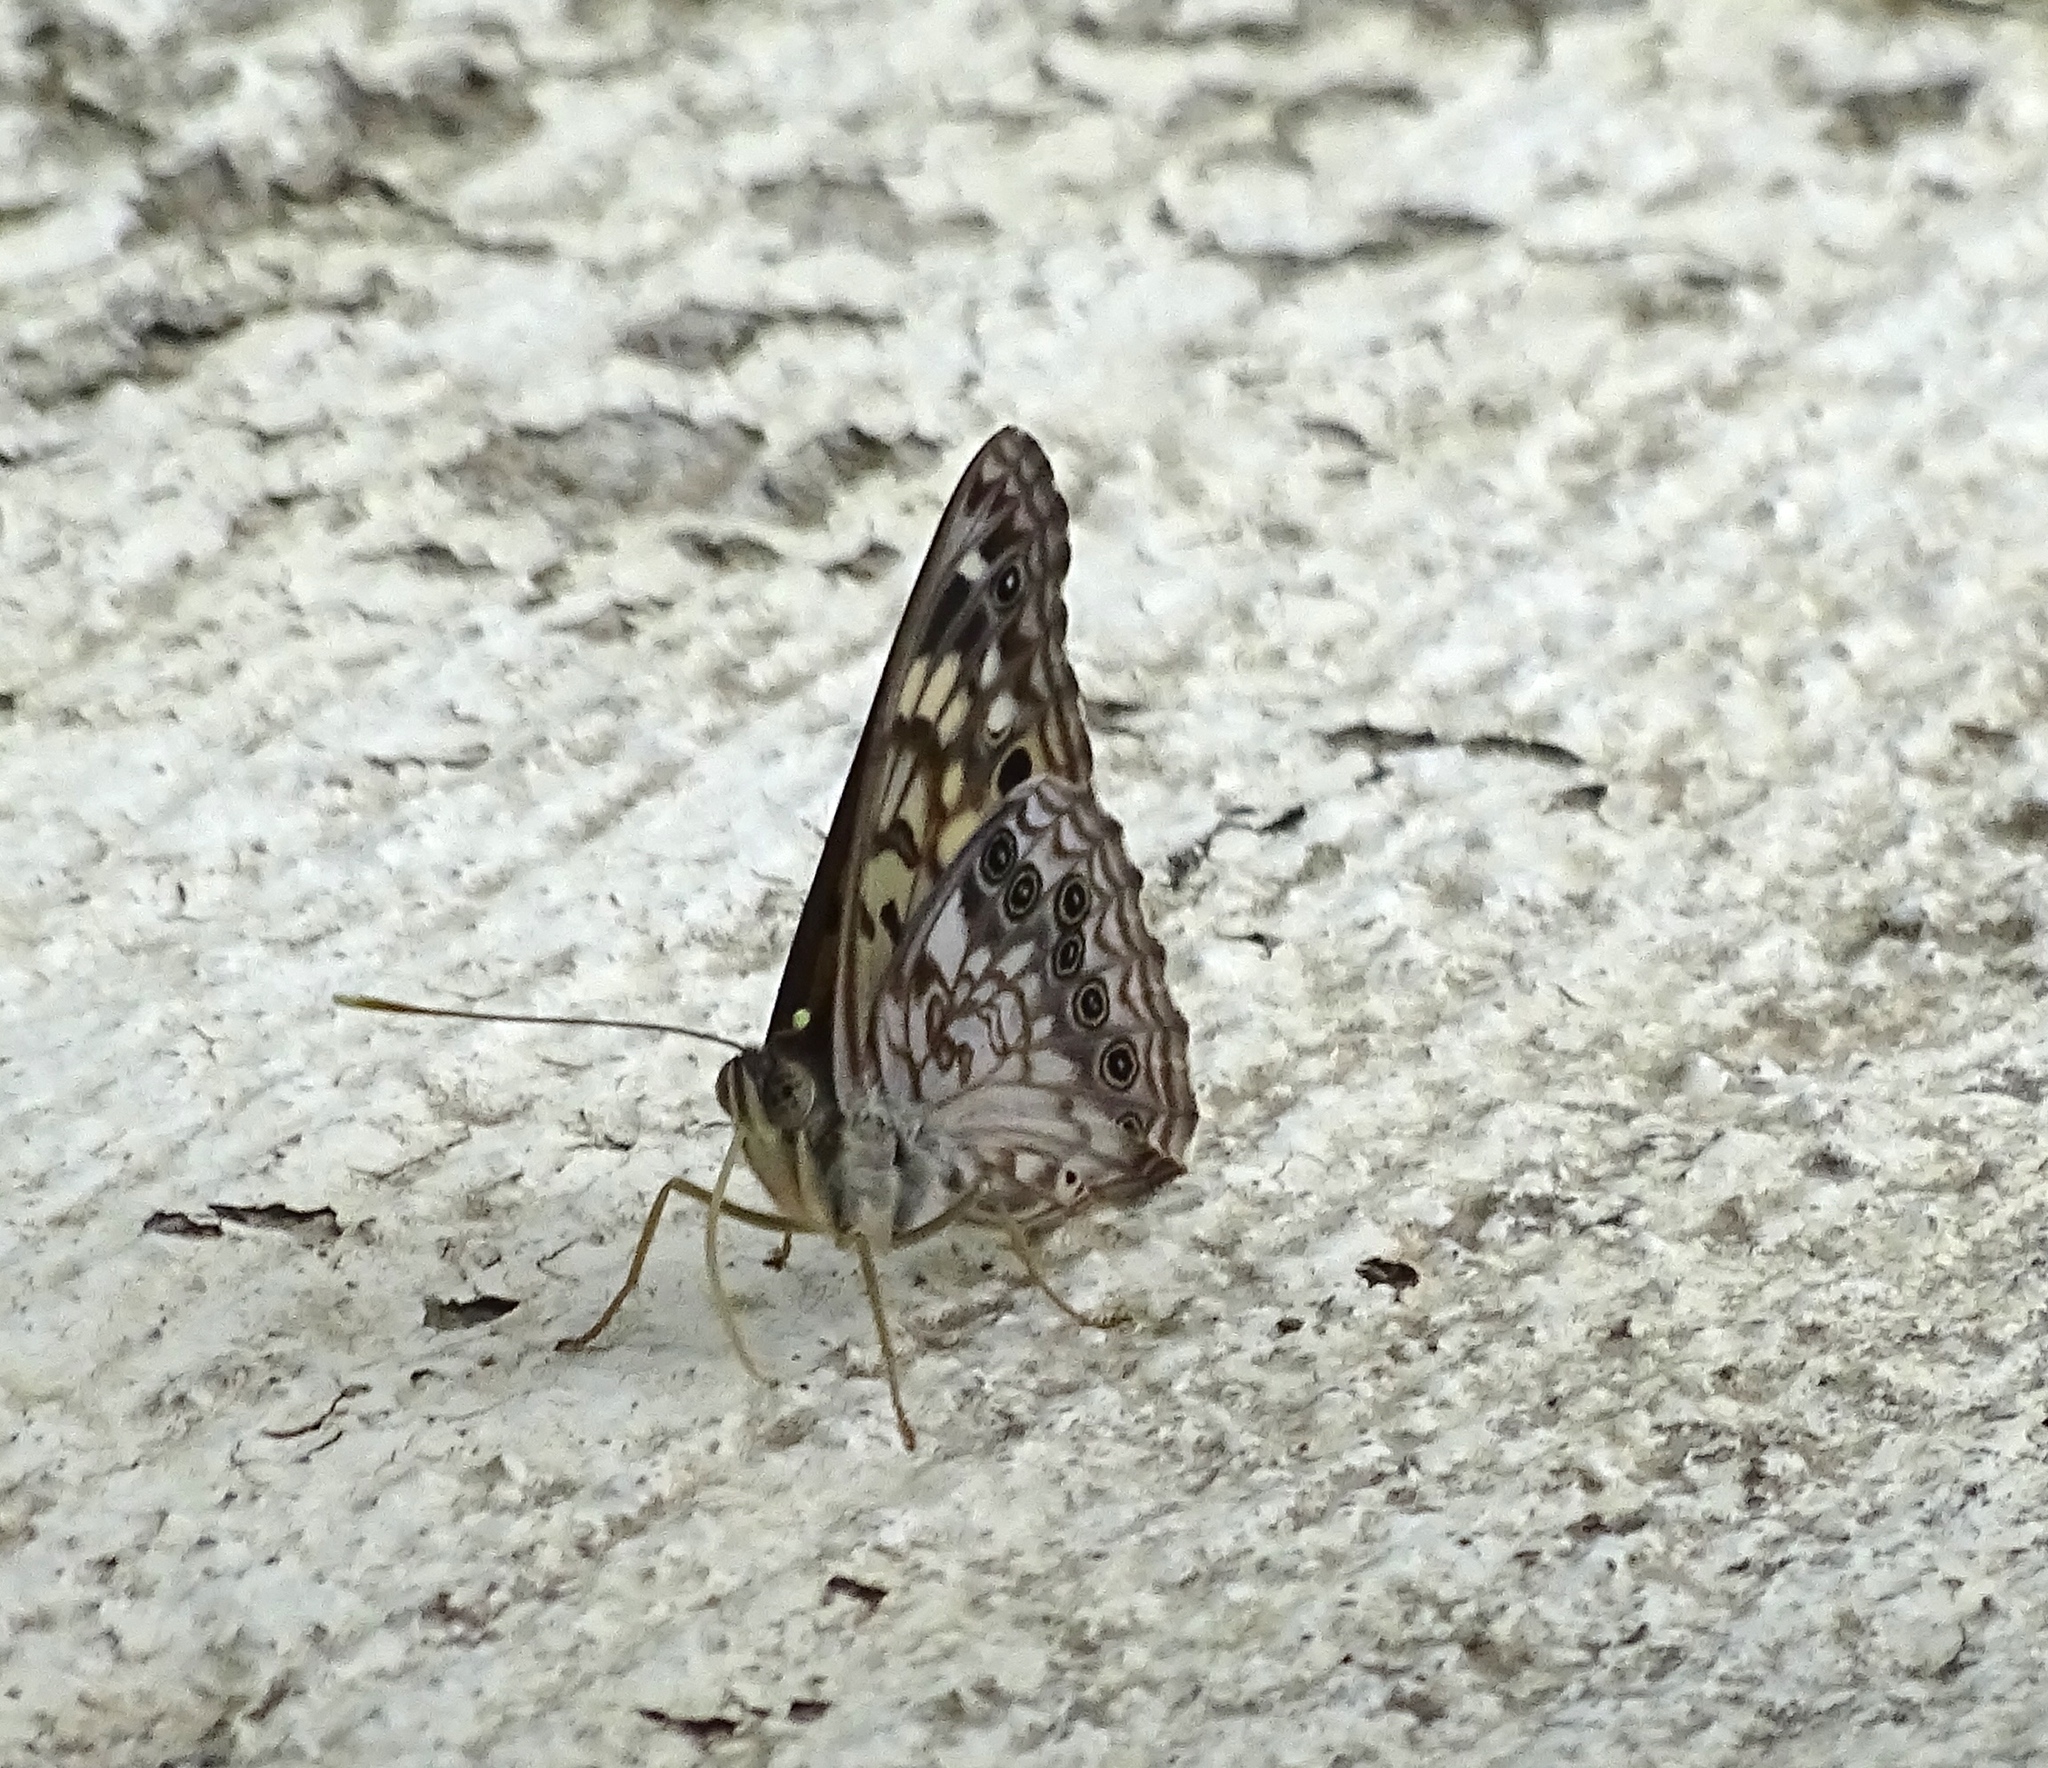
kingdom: Animalia
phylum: Arthropoda
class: Insecta
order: Lepidoptera
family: Nymphalidae
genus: Asterocampa
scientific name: Asterocampa celtis
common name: Hackberry emperor
